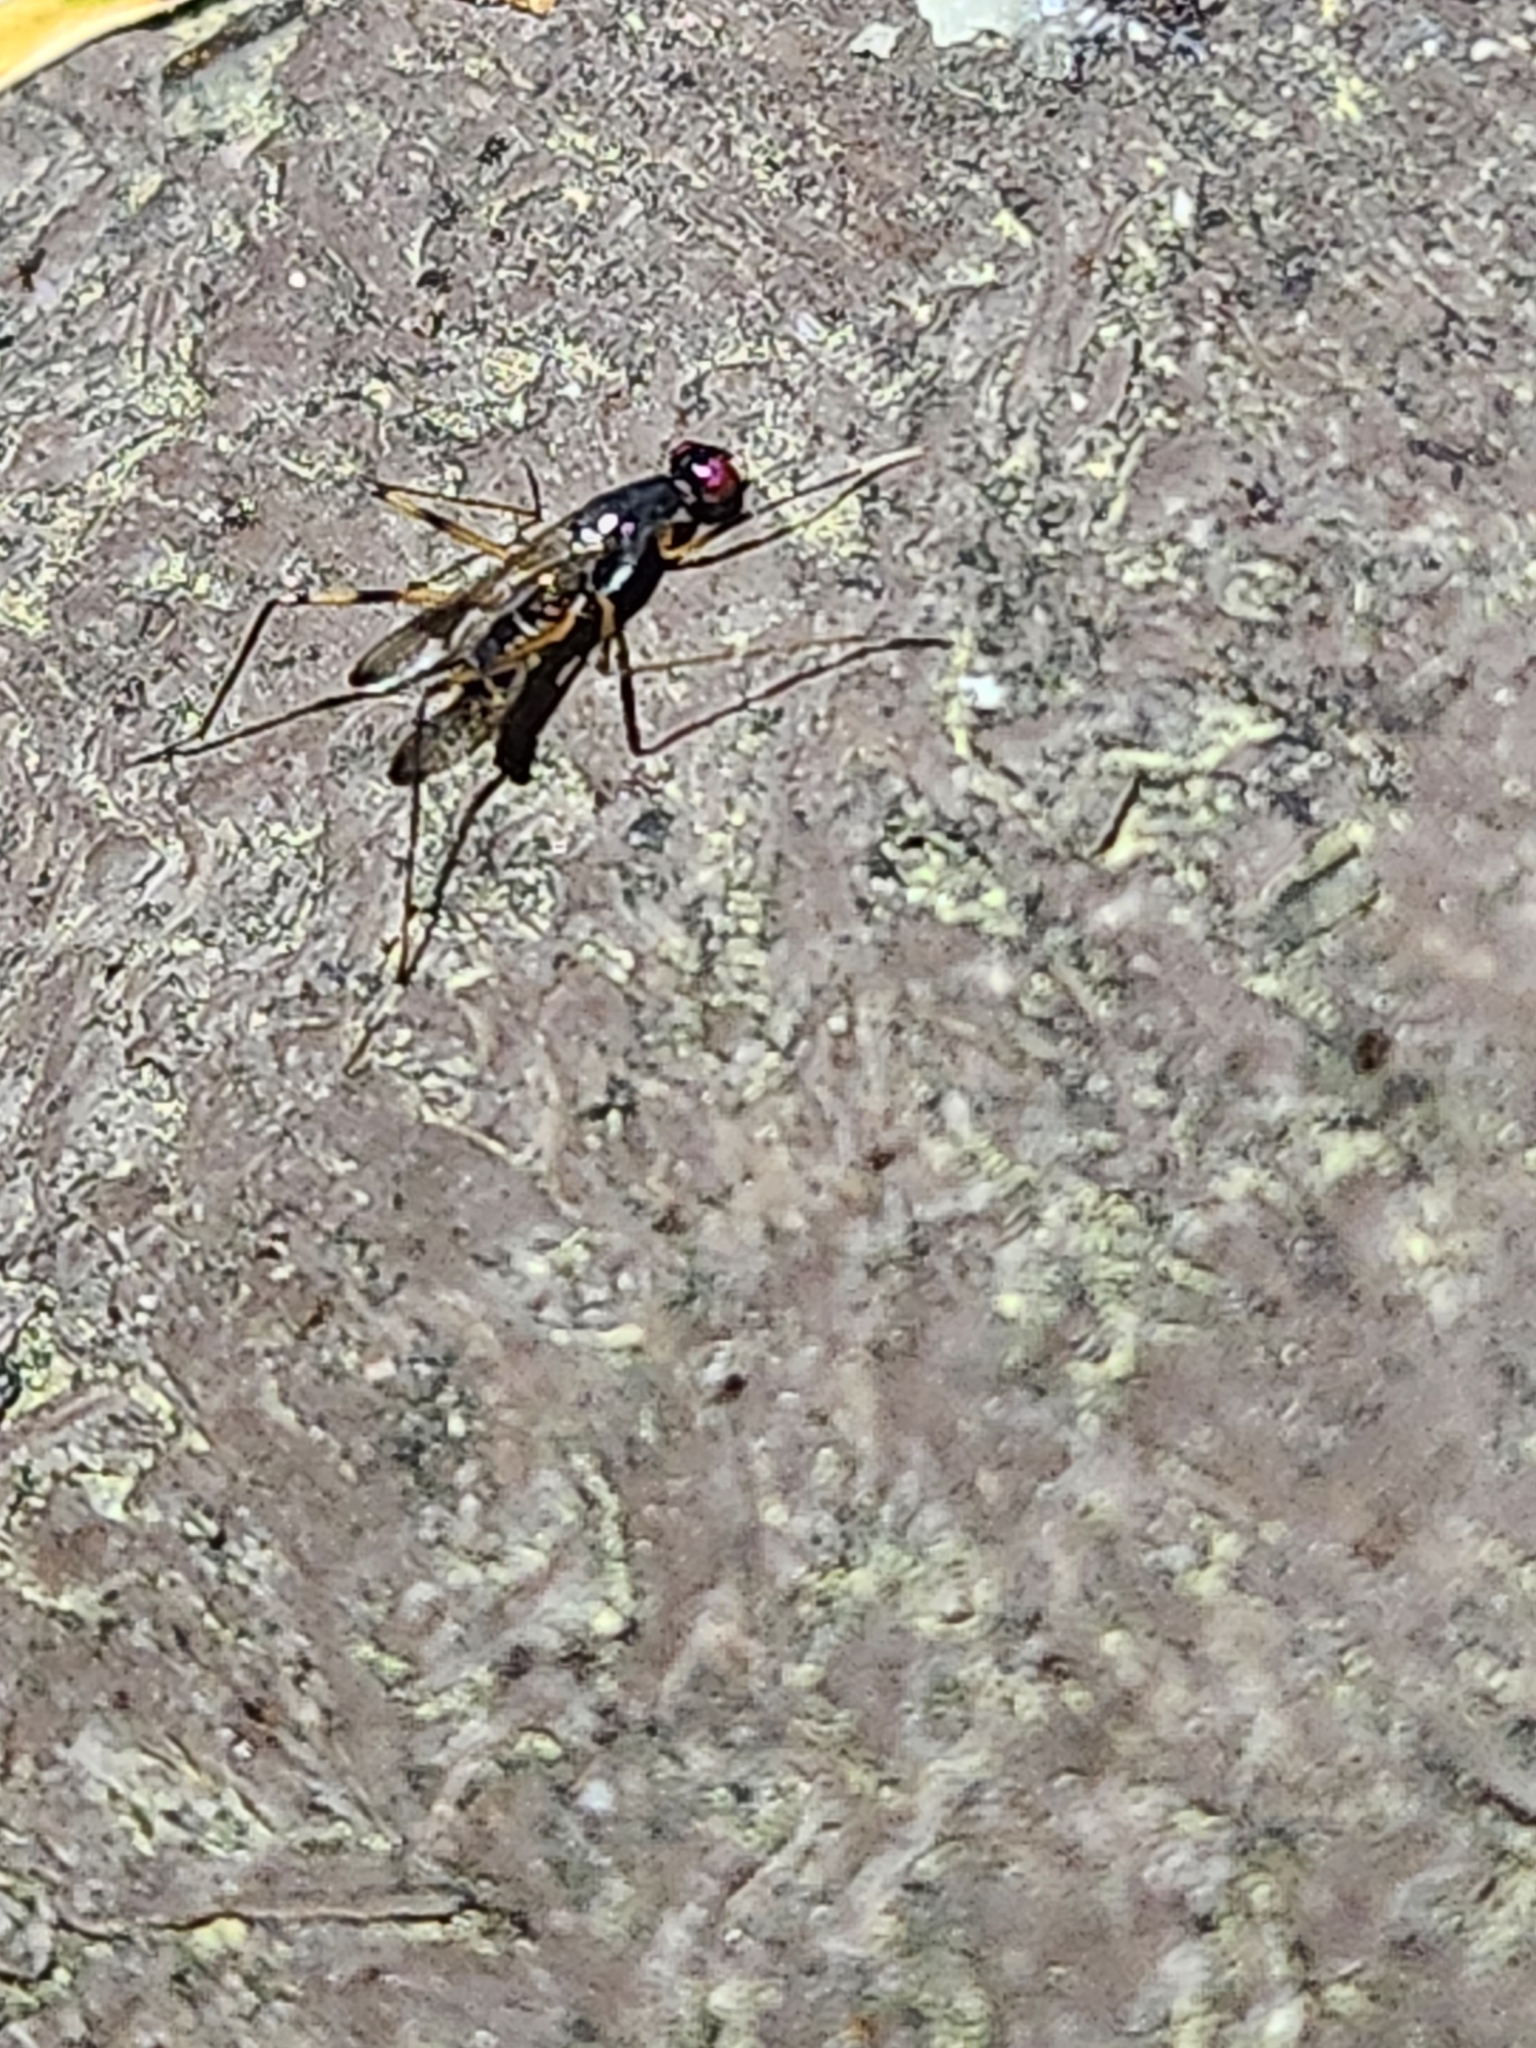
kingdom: Animalia
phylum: Arthropoda
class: Insecta
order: Diptera
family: Micropezidae
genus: Rainieria
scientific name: Rainieria antennaepes
